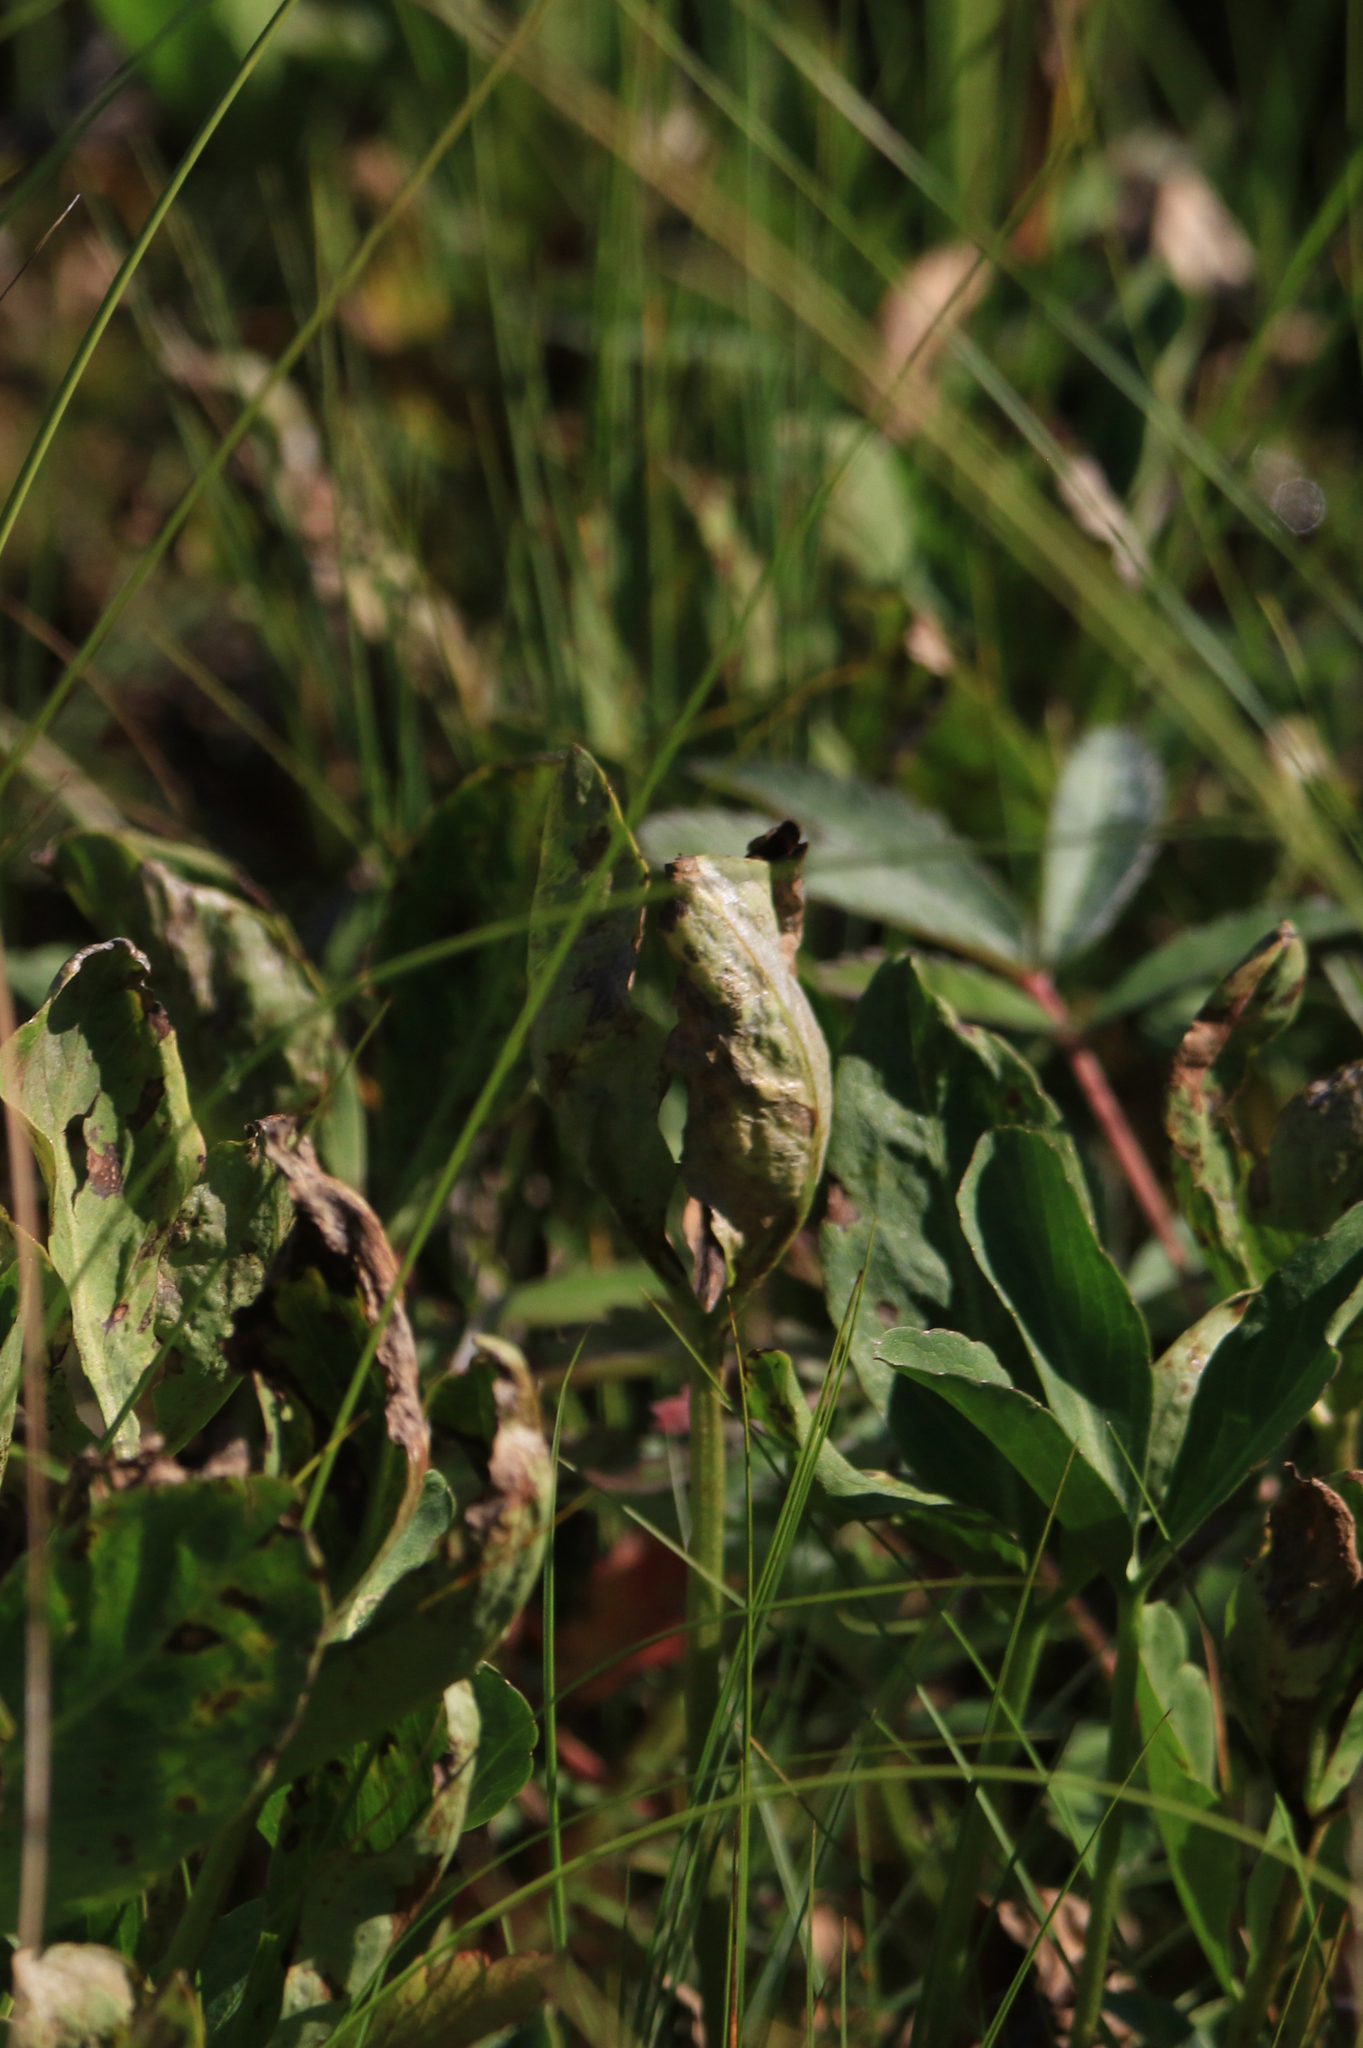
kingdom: Plantae
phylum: Tracheophyta
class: Magnoliopsida
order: Asterales
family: Menyanthaceae
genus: Menyanthes
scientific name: Menyanthes trifoliata
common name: Bogbean
